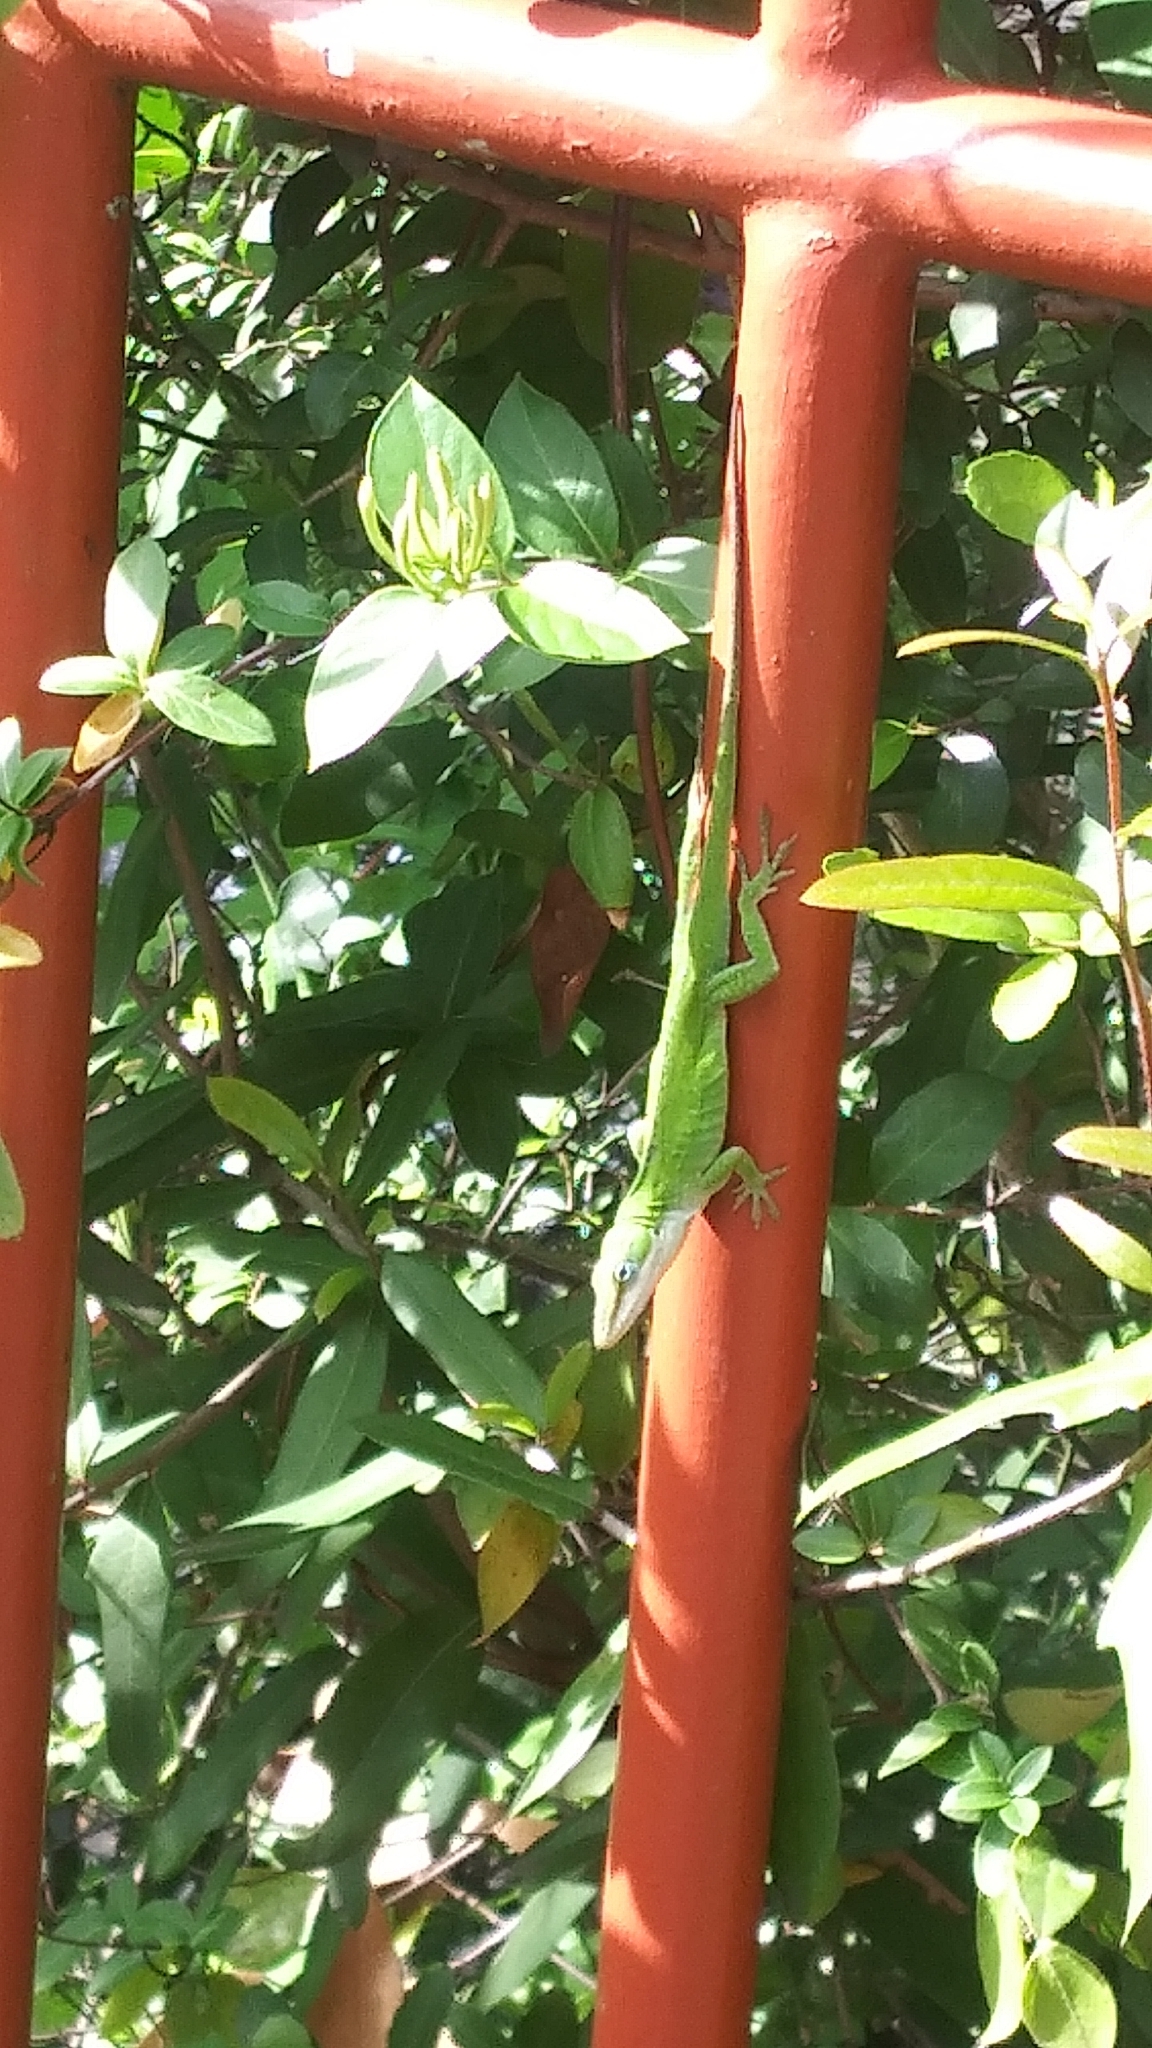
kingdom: Animalia
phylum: Chordata
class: Squamata
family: Dactyloidae
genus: Anolis
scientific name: Anolis carolinensis
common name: Green anole
